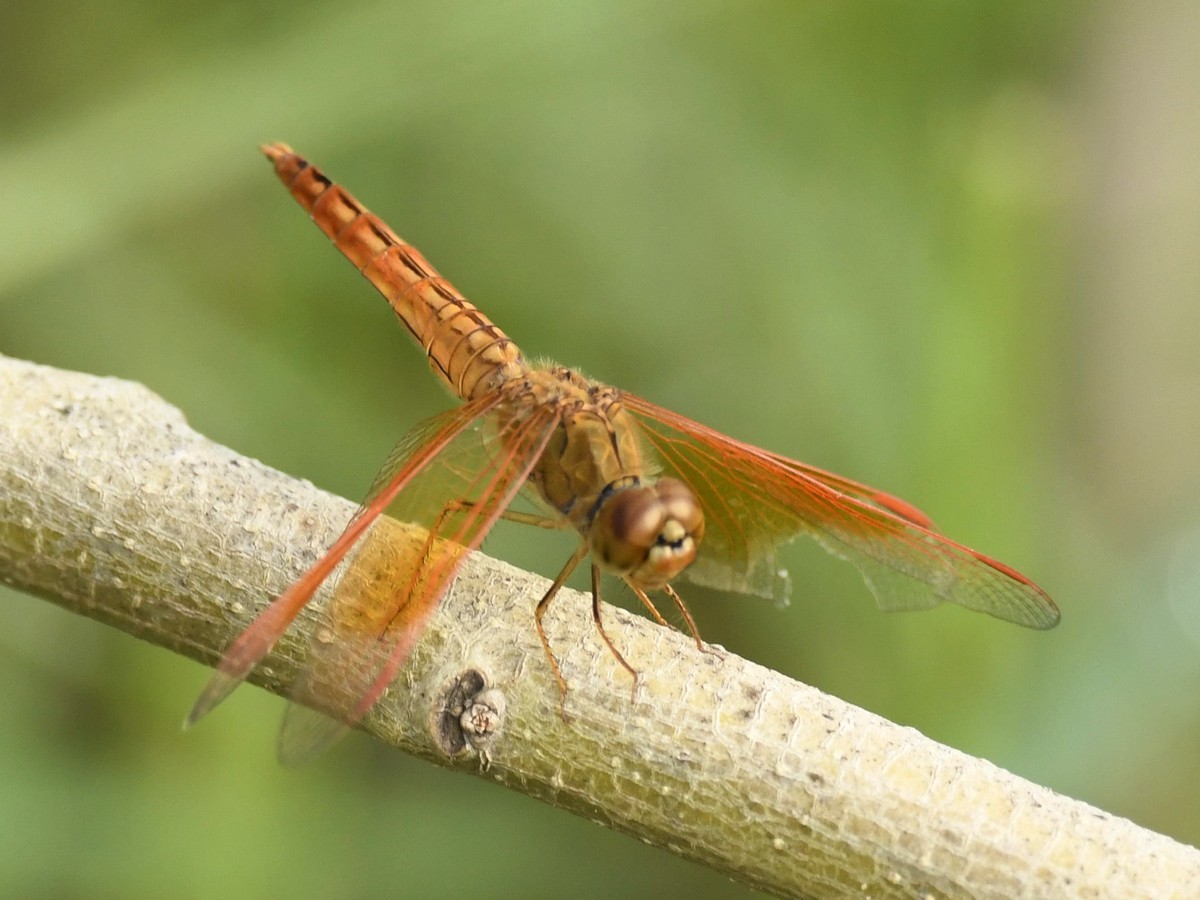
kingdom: Animalia
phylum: Arthropoda
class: Insecta
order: Odonata
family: Libellulidae
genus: Brachythemis
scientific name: Brachythemis contaminata
